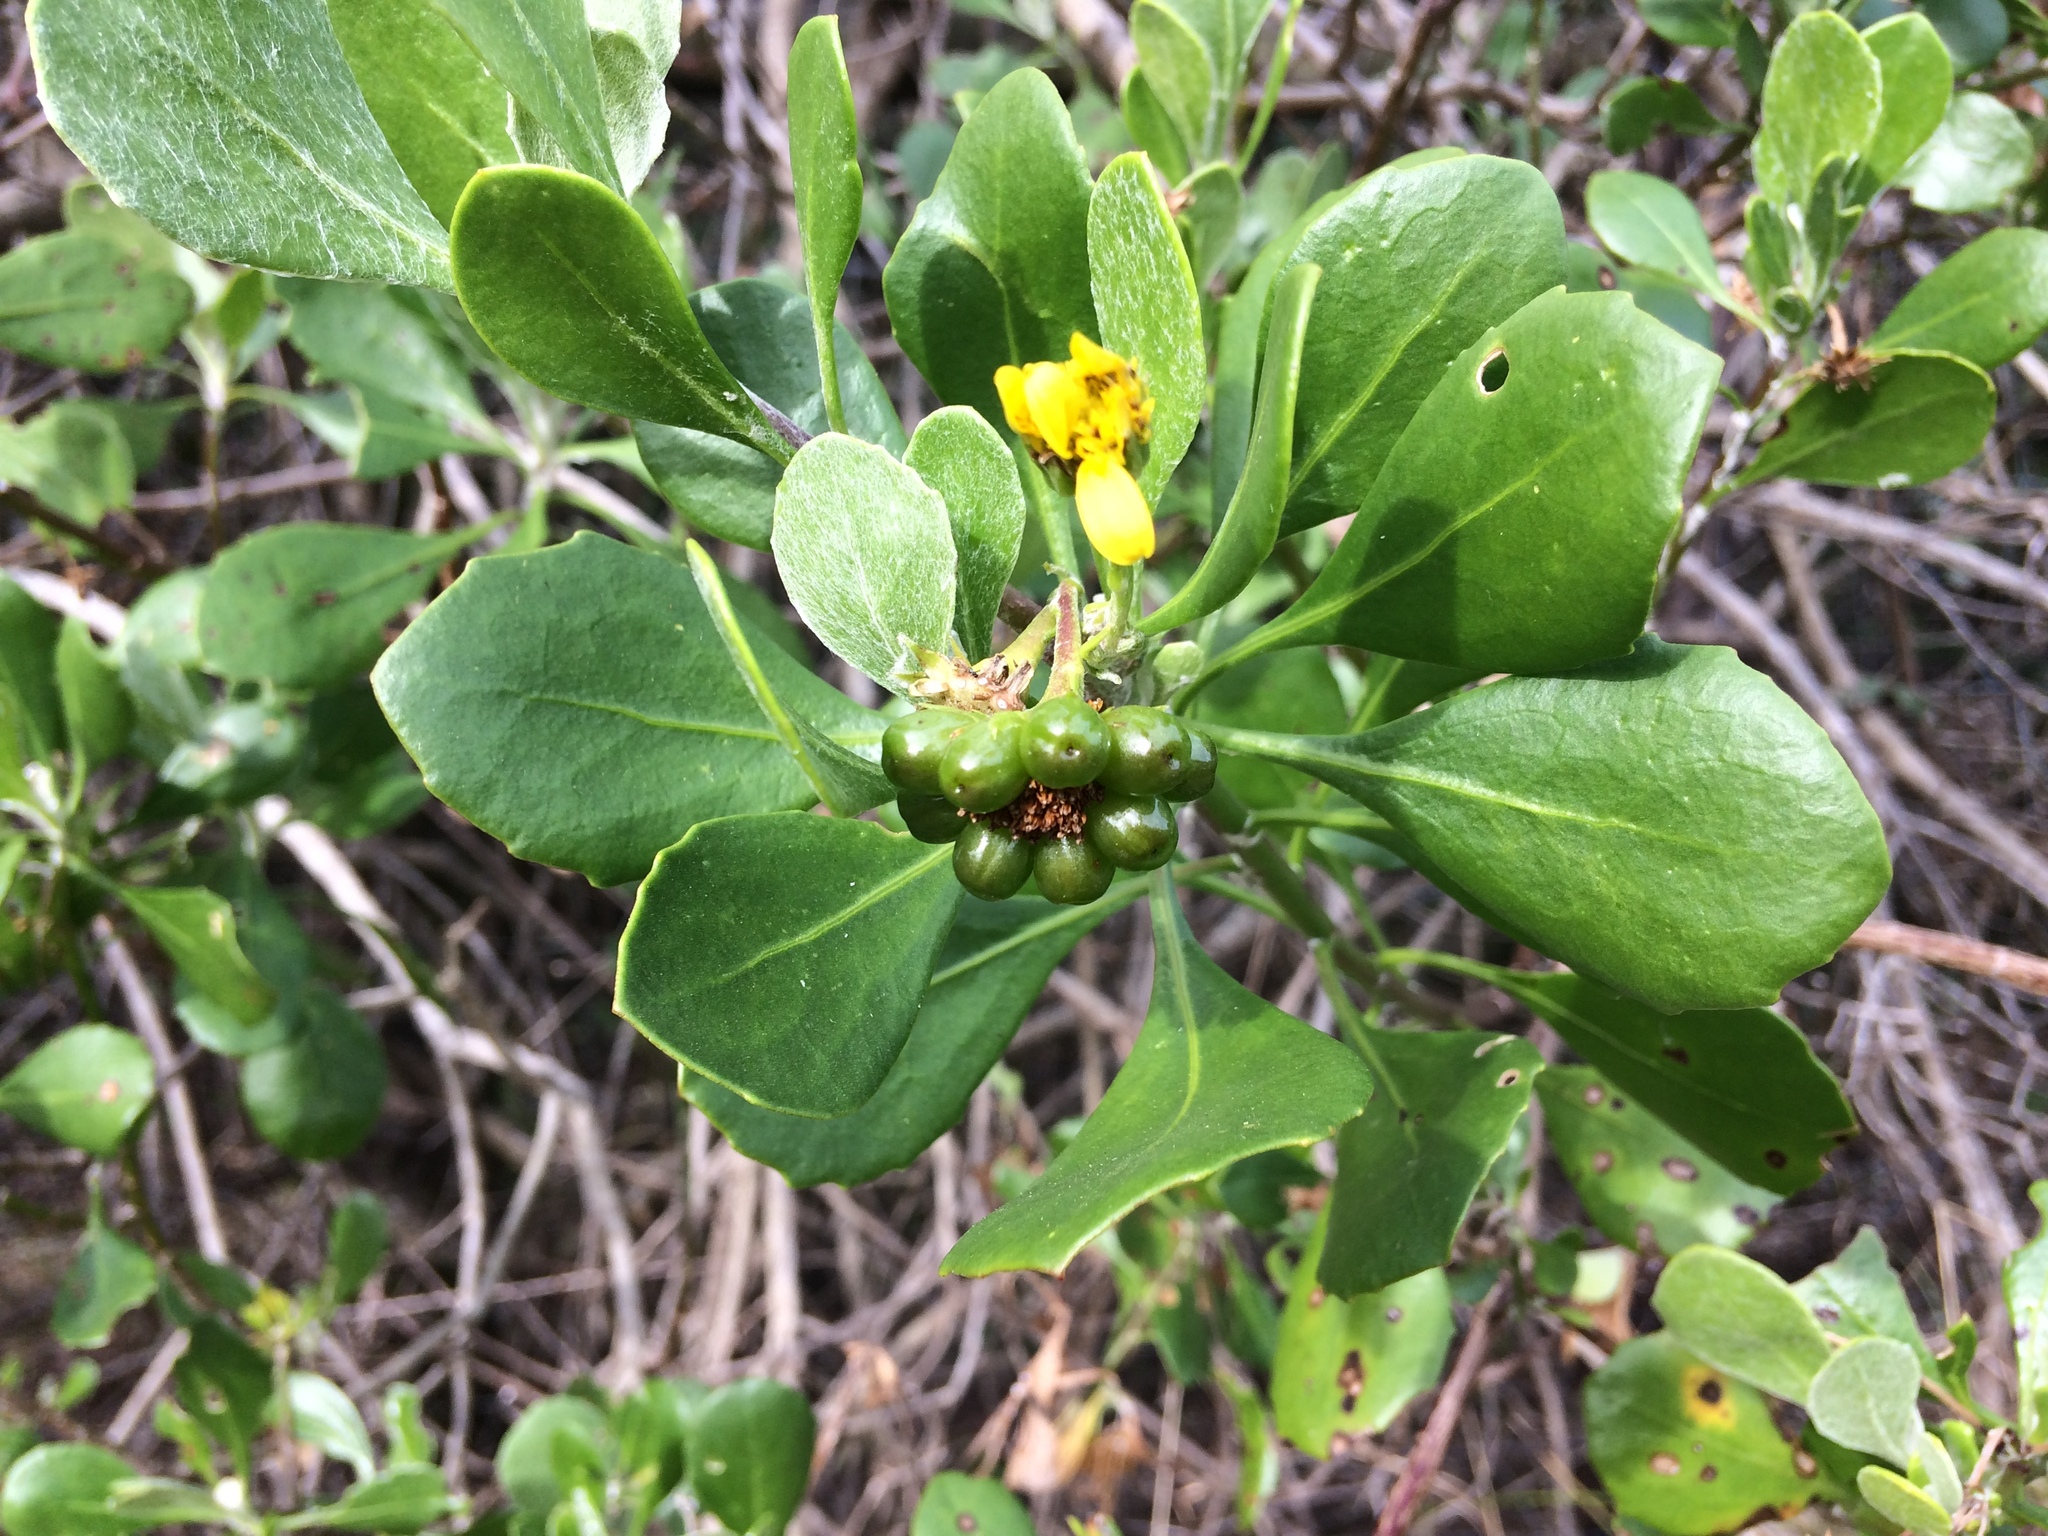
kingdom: Plantae
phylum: Tracheophyta
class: Magnoliopsida
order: Asterales
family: Asteraceae
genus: Osteospermum
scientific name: Osteospermum moniliferum
